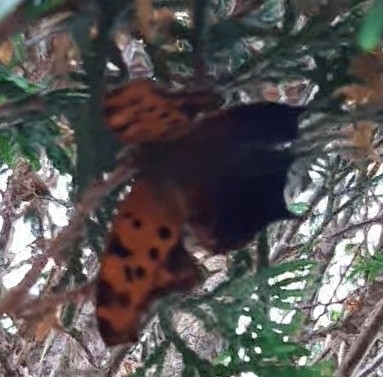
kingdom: Animalia
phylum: Arthropoda
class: Insecta
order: Lepidoptera
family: Nymphalidae
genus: Polygonia
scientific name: Polygonia interrogationis
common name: Question mark
